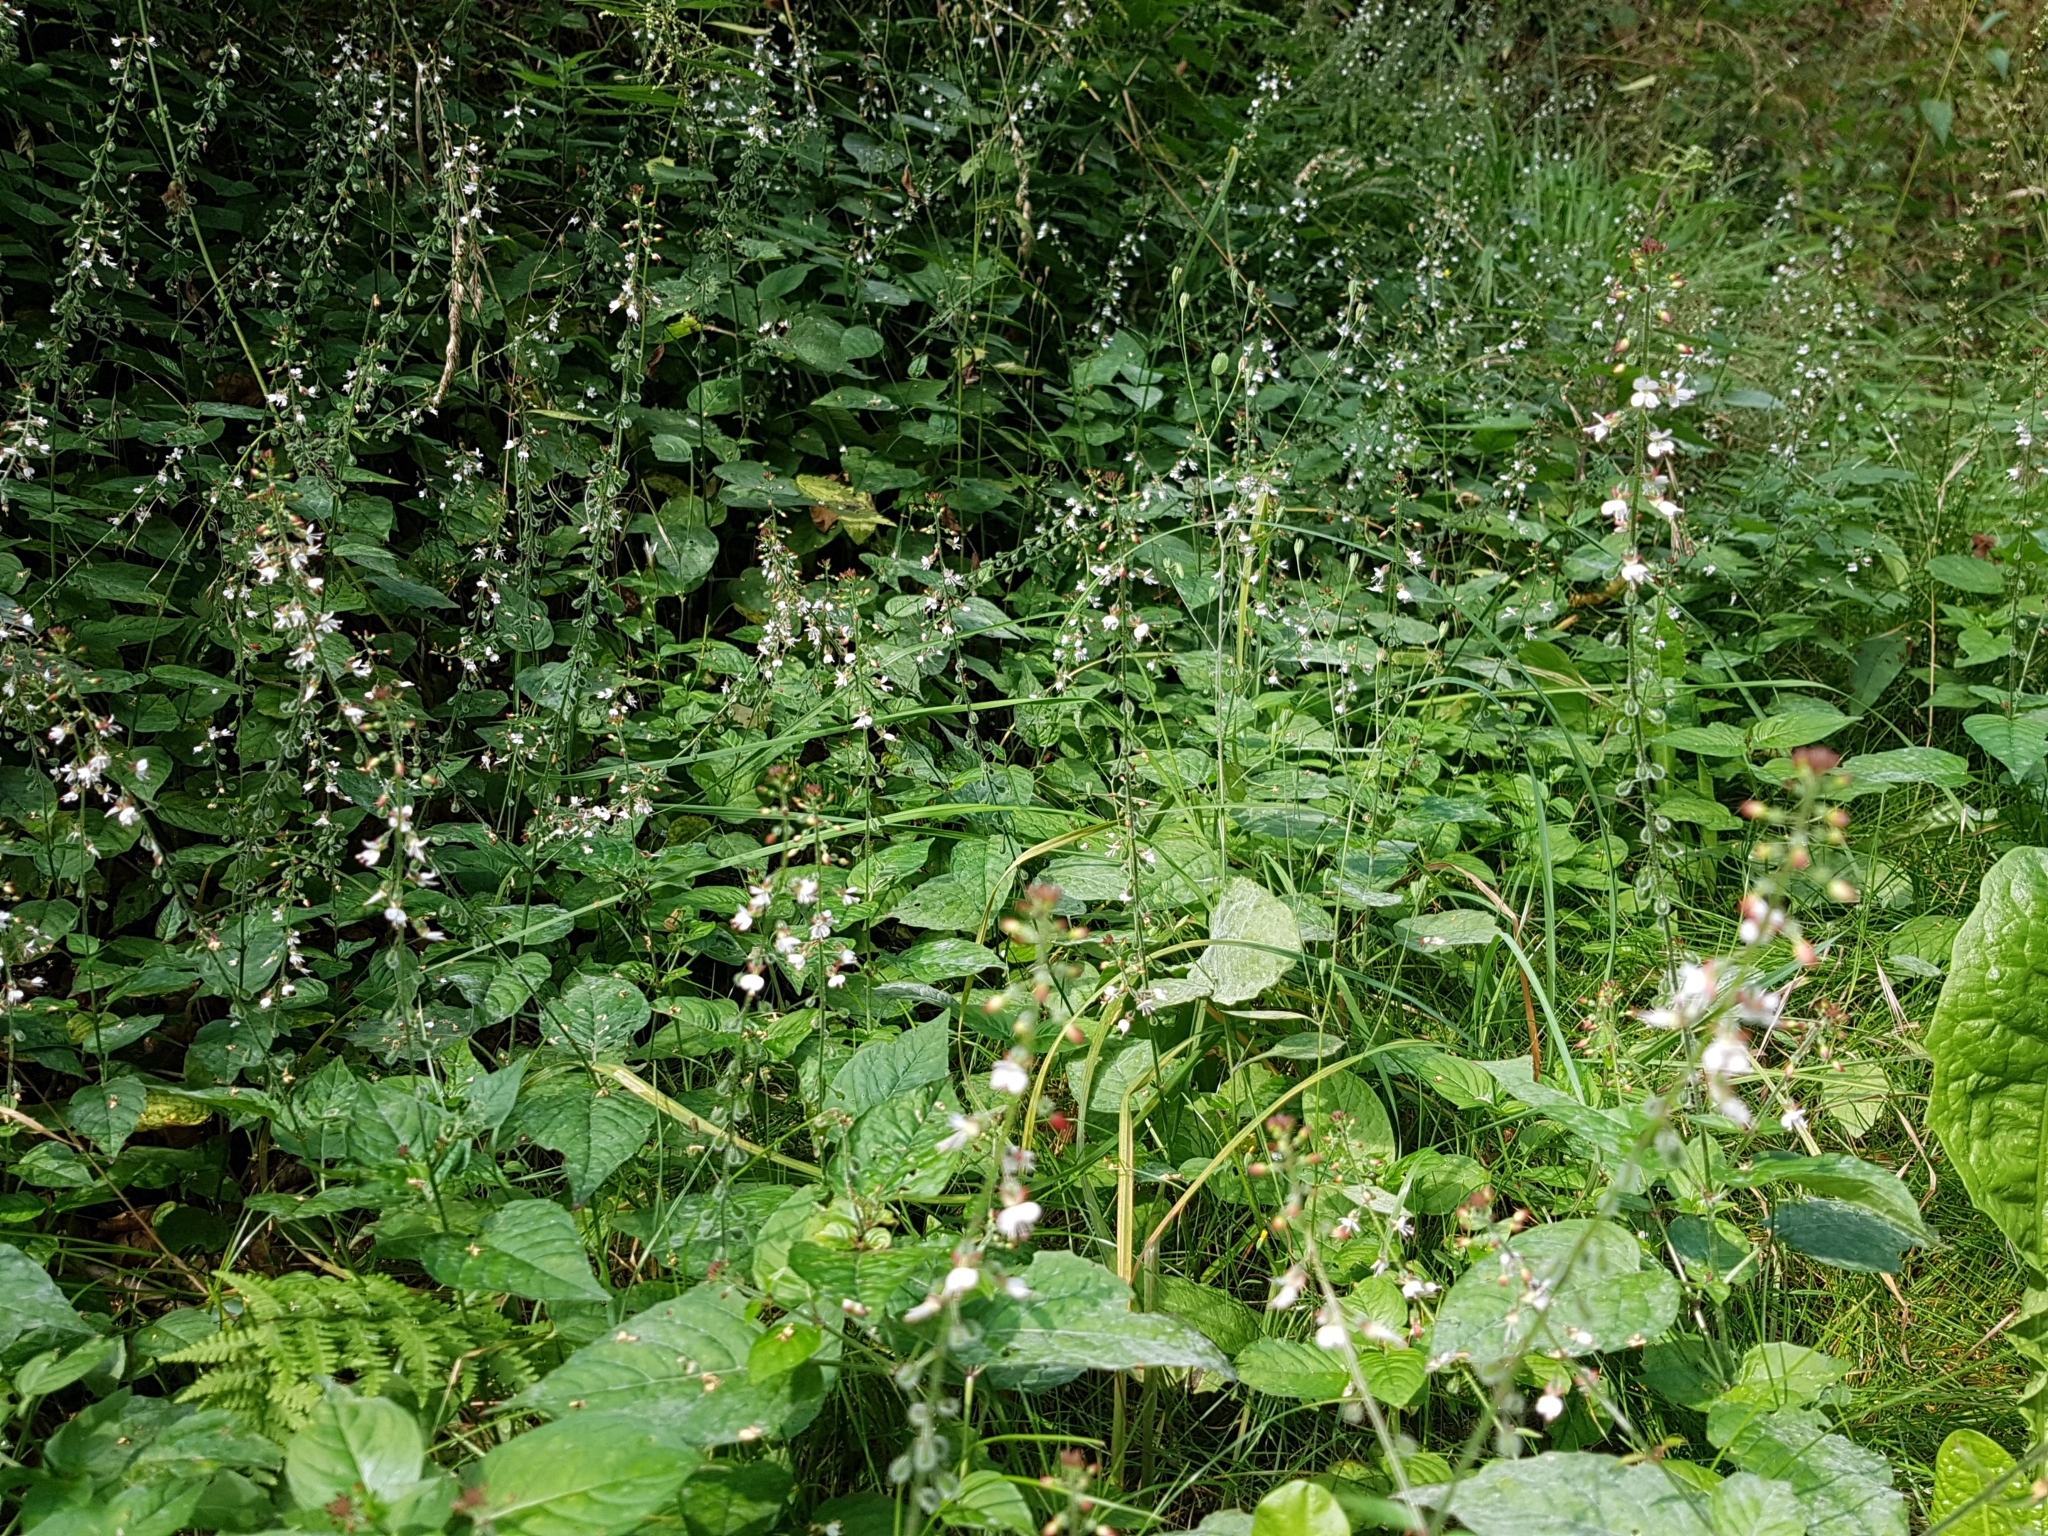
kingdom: Plantae
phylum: Tracheophyta
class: Magnoliopsida
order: Myrtales
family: Onagraceae
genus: Circaea
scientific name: Circaea lutetiana
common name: Enchanter's-nightshade
